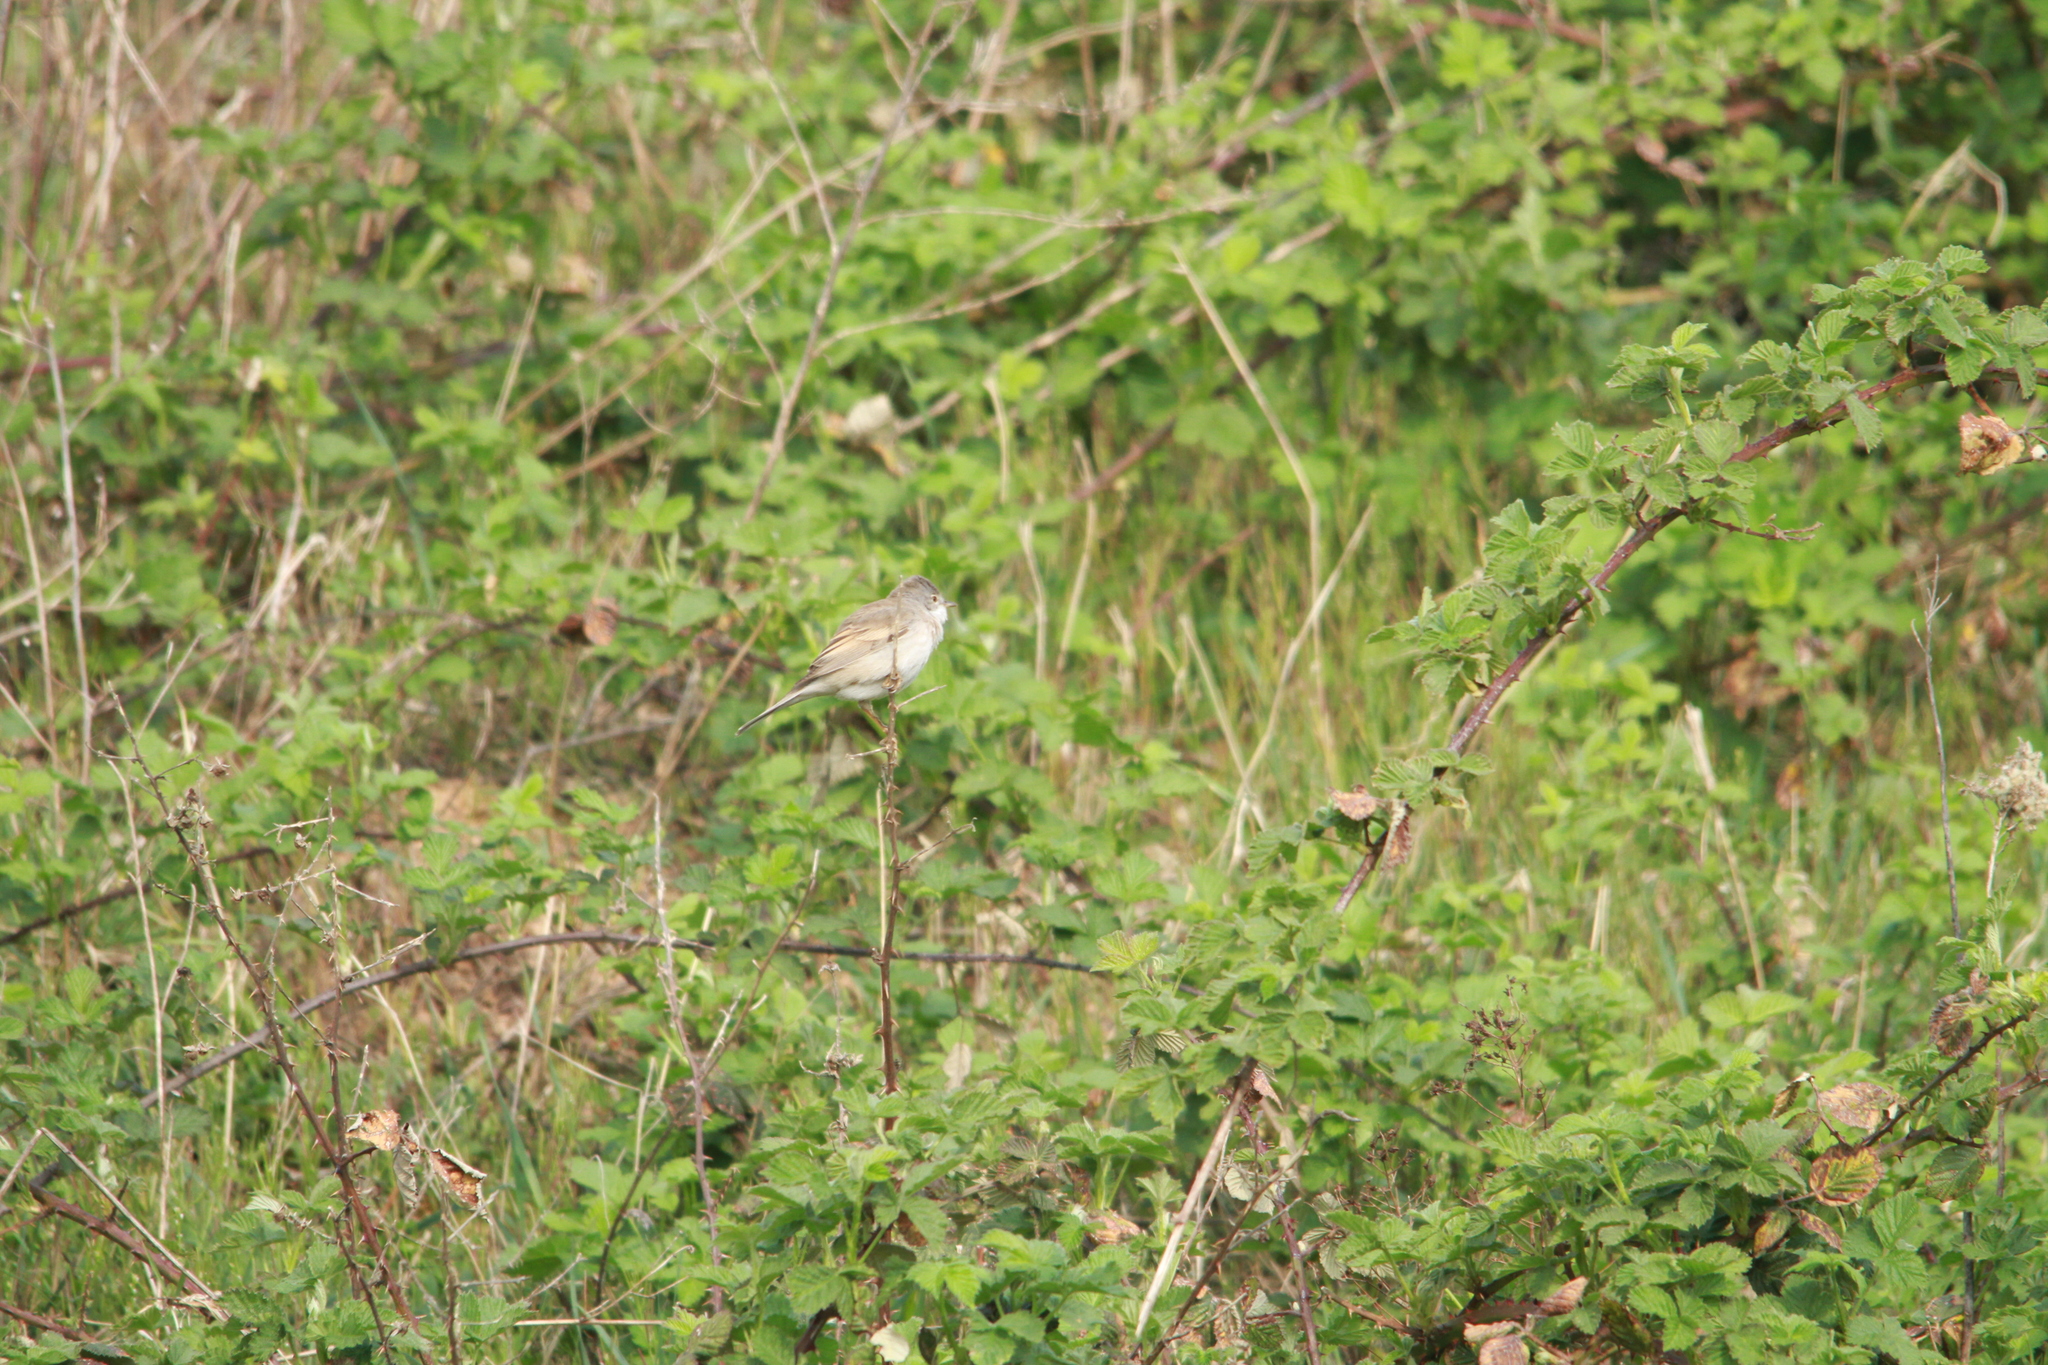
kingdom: Animalia
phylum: Chordata
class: Aves
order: Passeriformes
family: Sylviidae
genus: Sylvia
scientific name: Sylvia communis
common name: Common whitethroat
